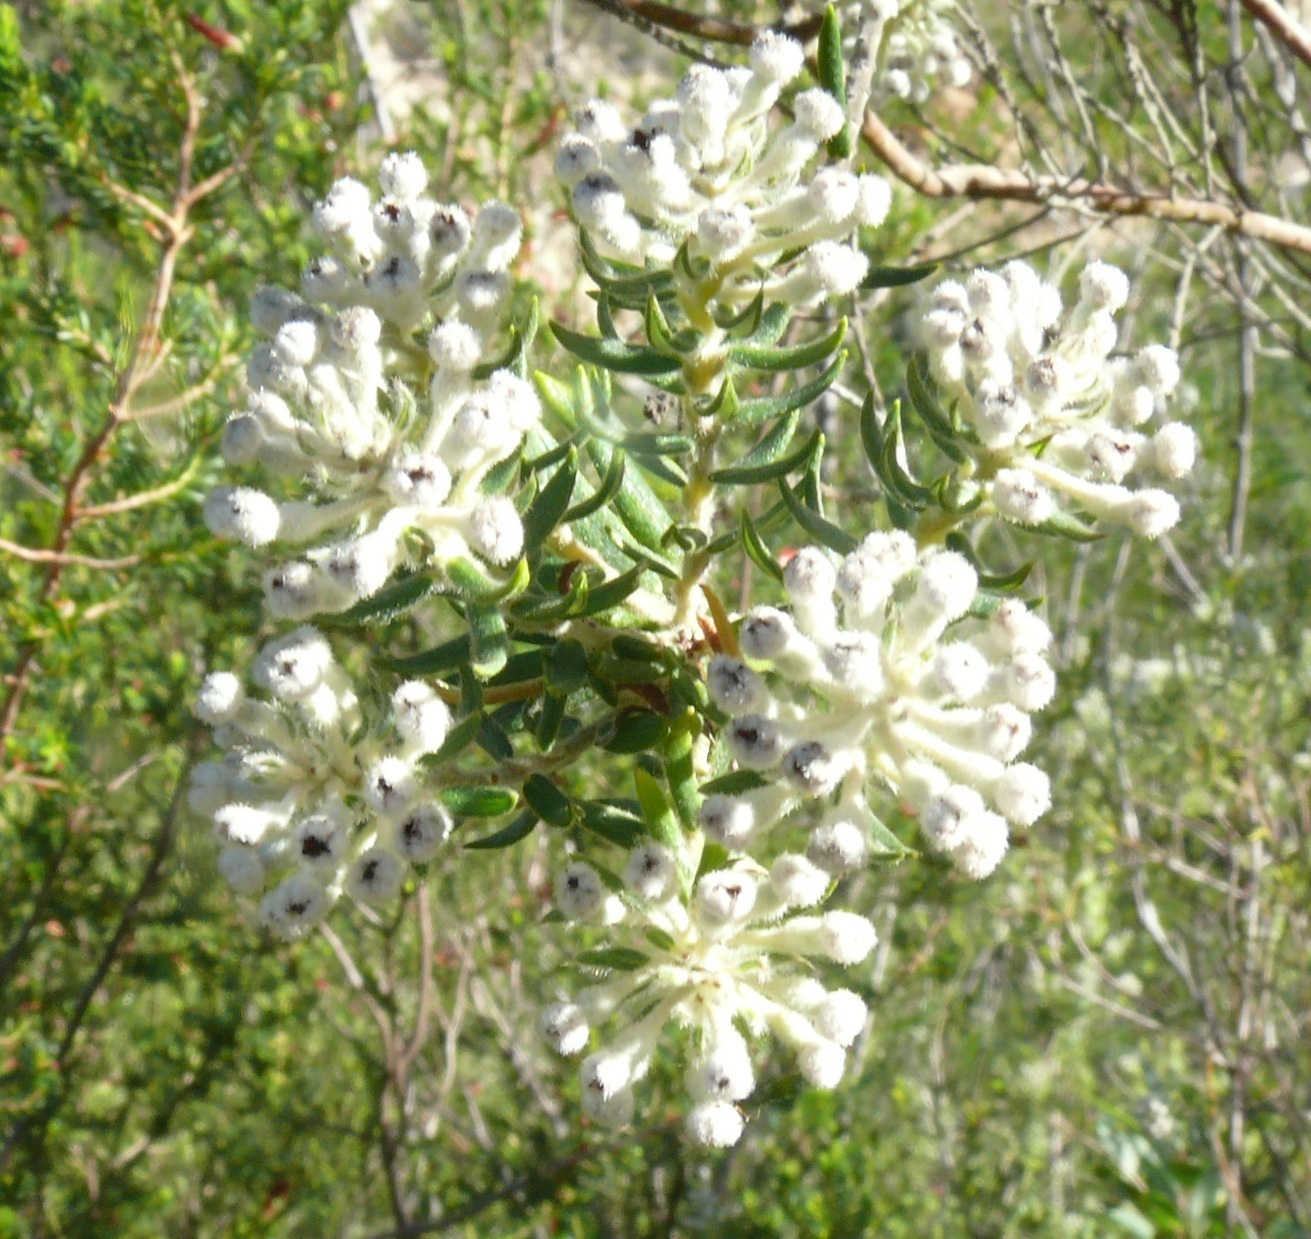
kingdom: Plantae
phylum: Tracheophyta
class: Magnoliopsida
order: Rosales
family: Rhamnaceae
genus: Phylica
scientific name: Phylica pinea
